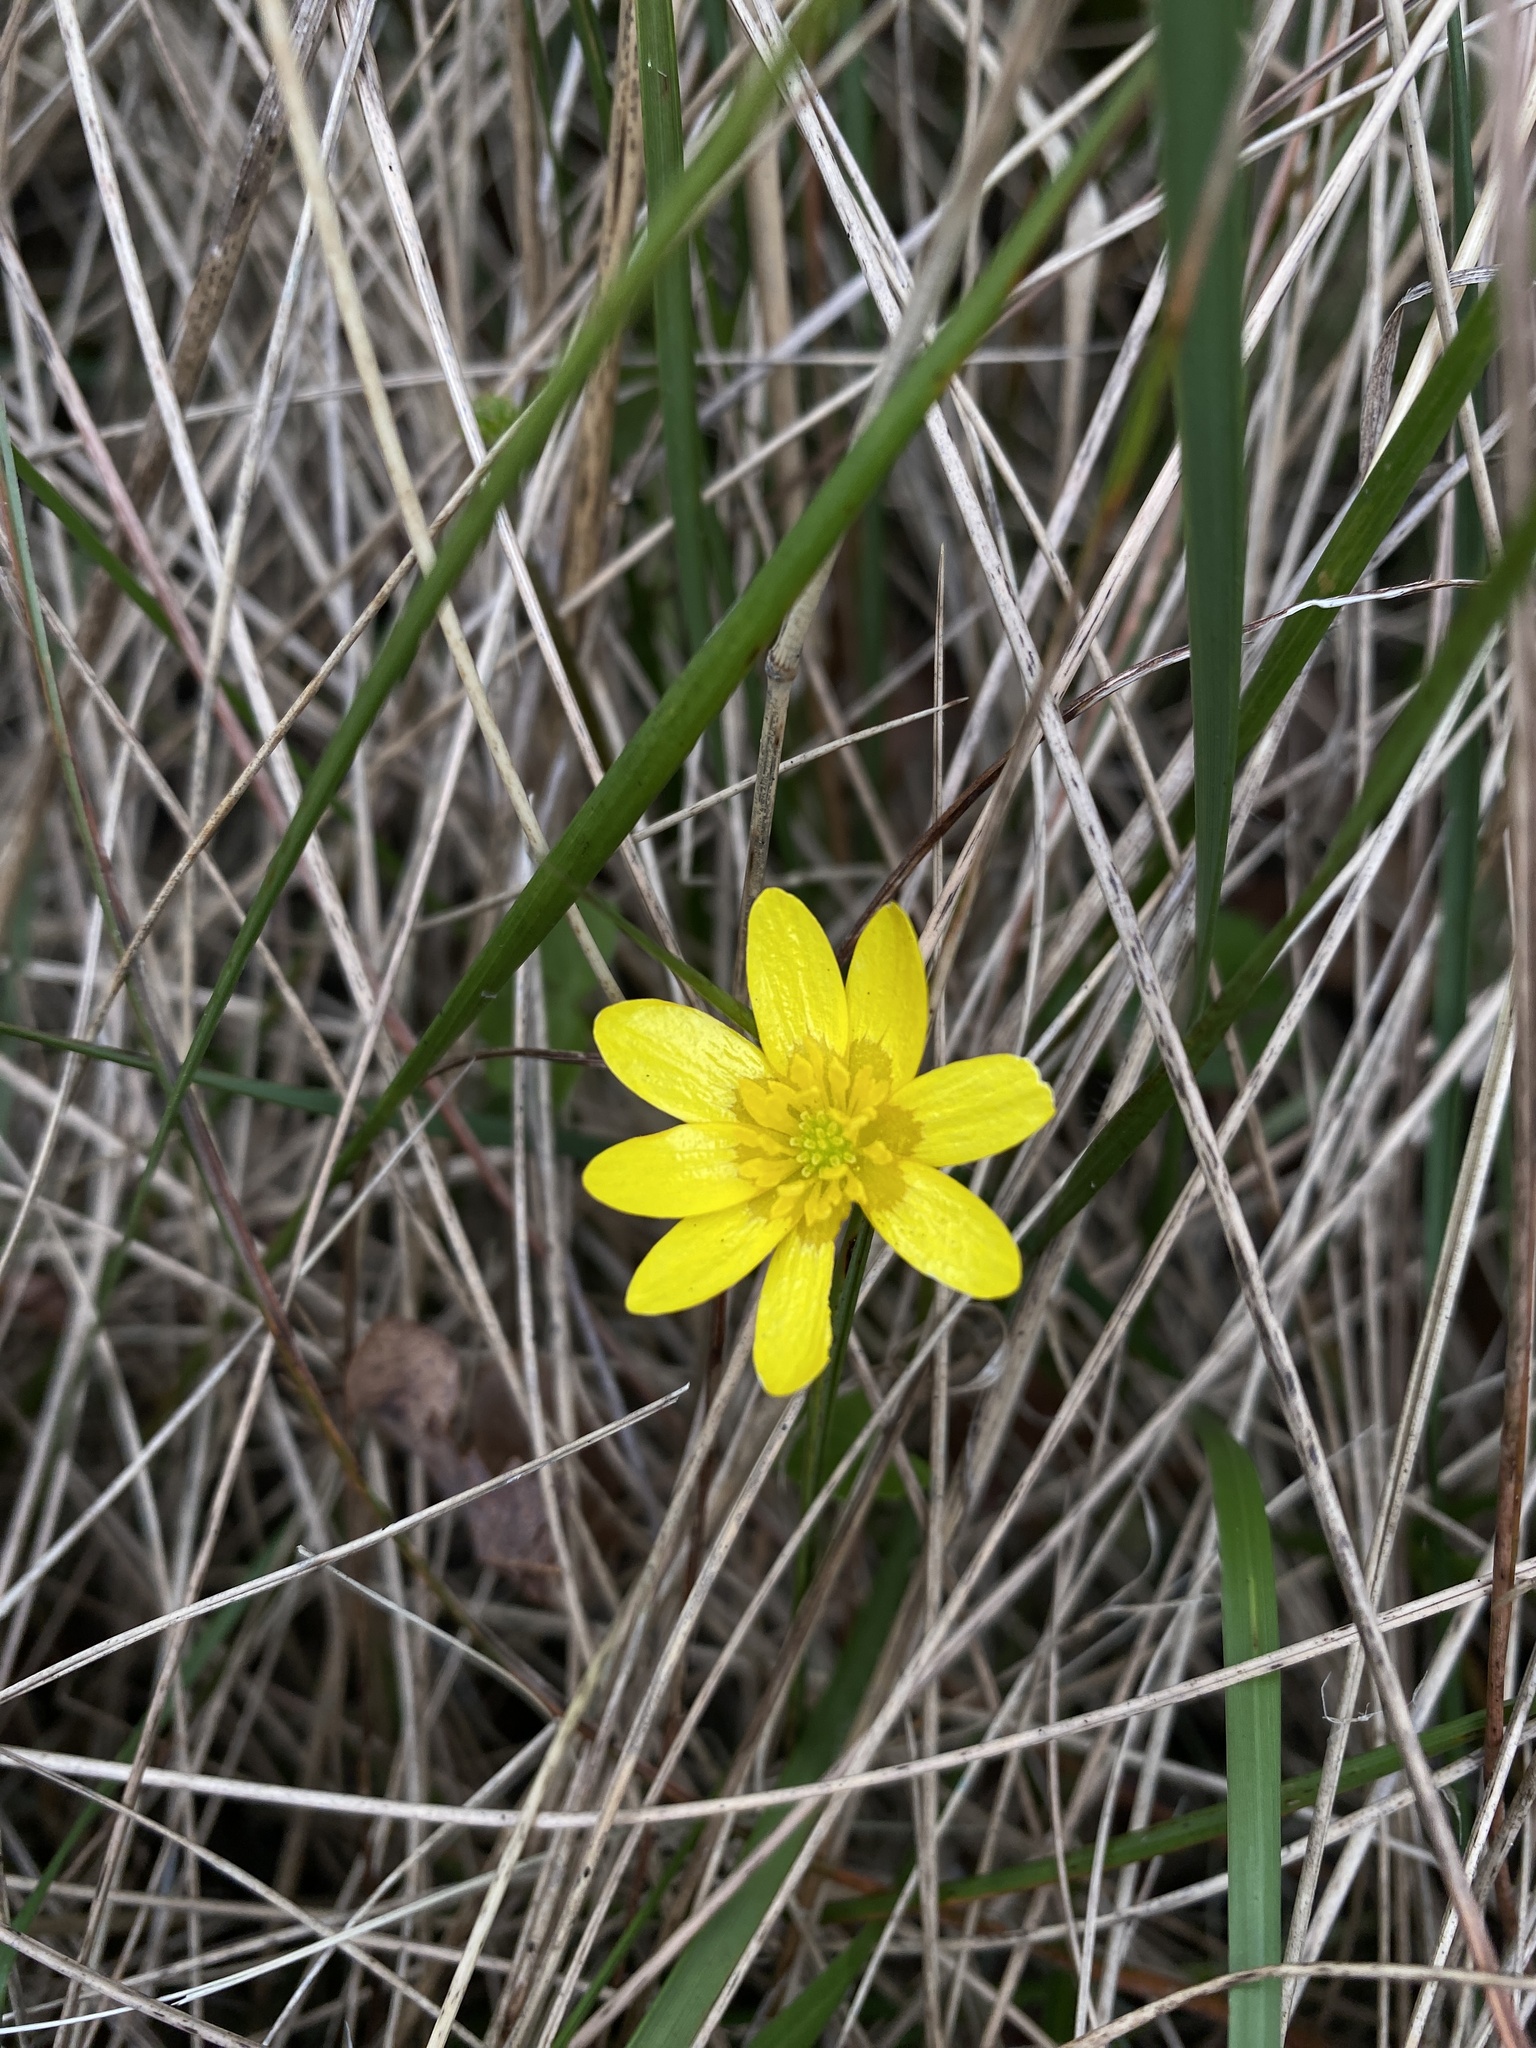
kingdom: Plantae
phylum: Tracheophyta
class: Magnoliopsida
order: Ranunculales
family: Ranunculaceae
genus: Ficaria
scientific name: Ficaria verna
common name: Lesser celandine
